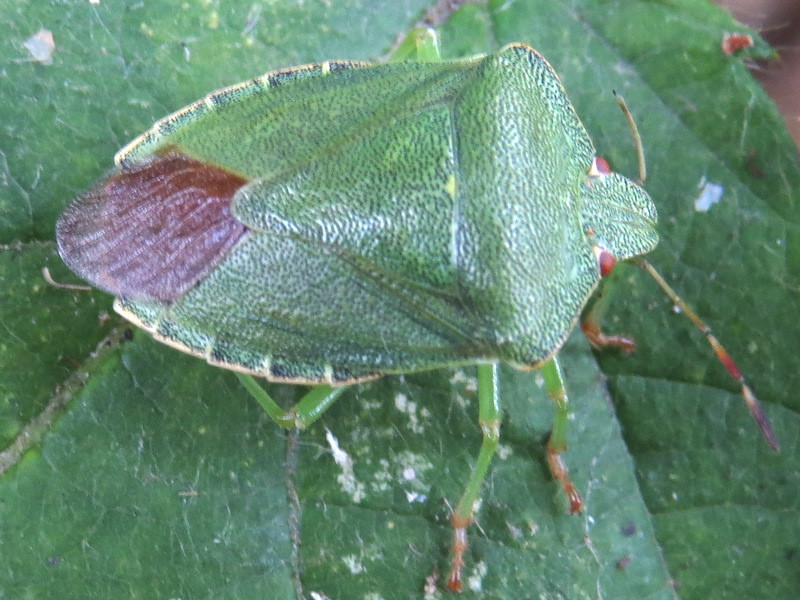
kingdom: Animalia
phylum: Arthropoda
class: Insecta
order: Hemiptera
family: Pentatomidae
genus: Palomena
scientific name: Palomena prasina
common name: Green shieldbug
